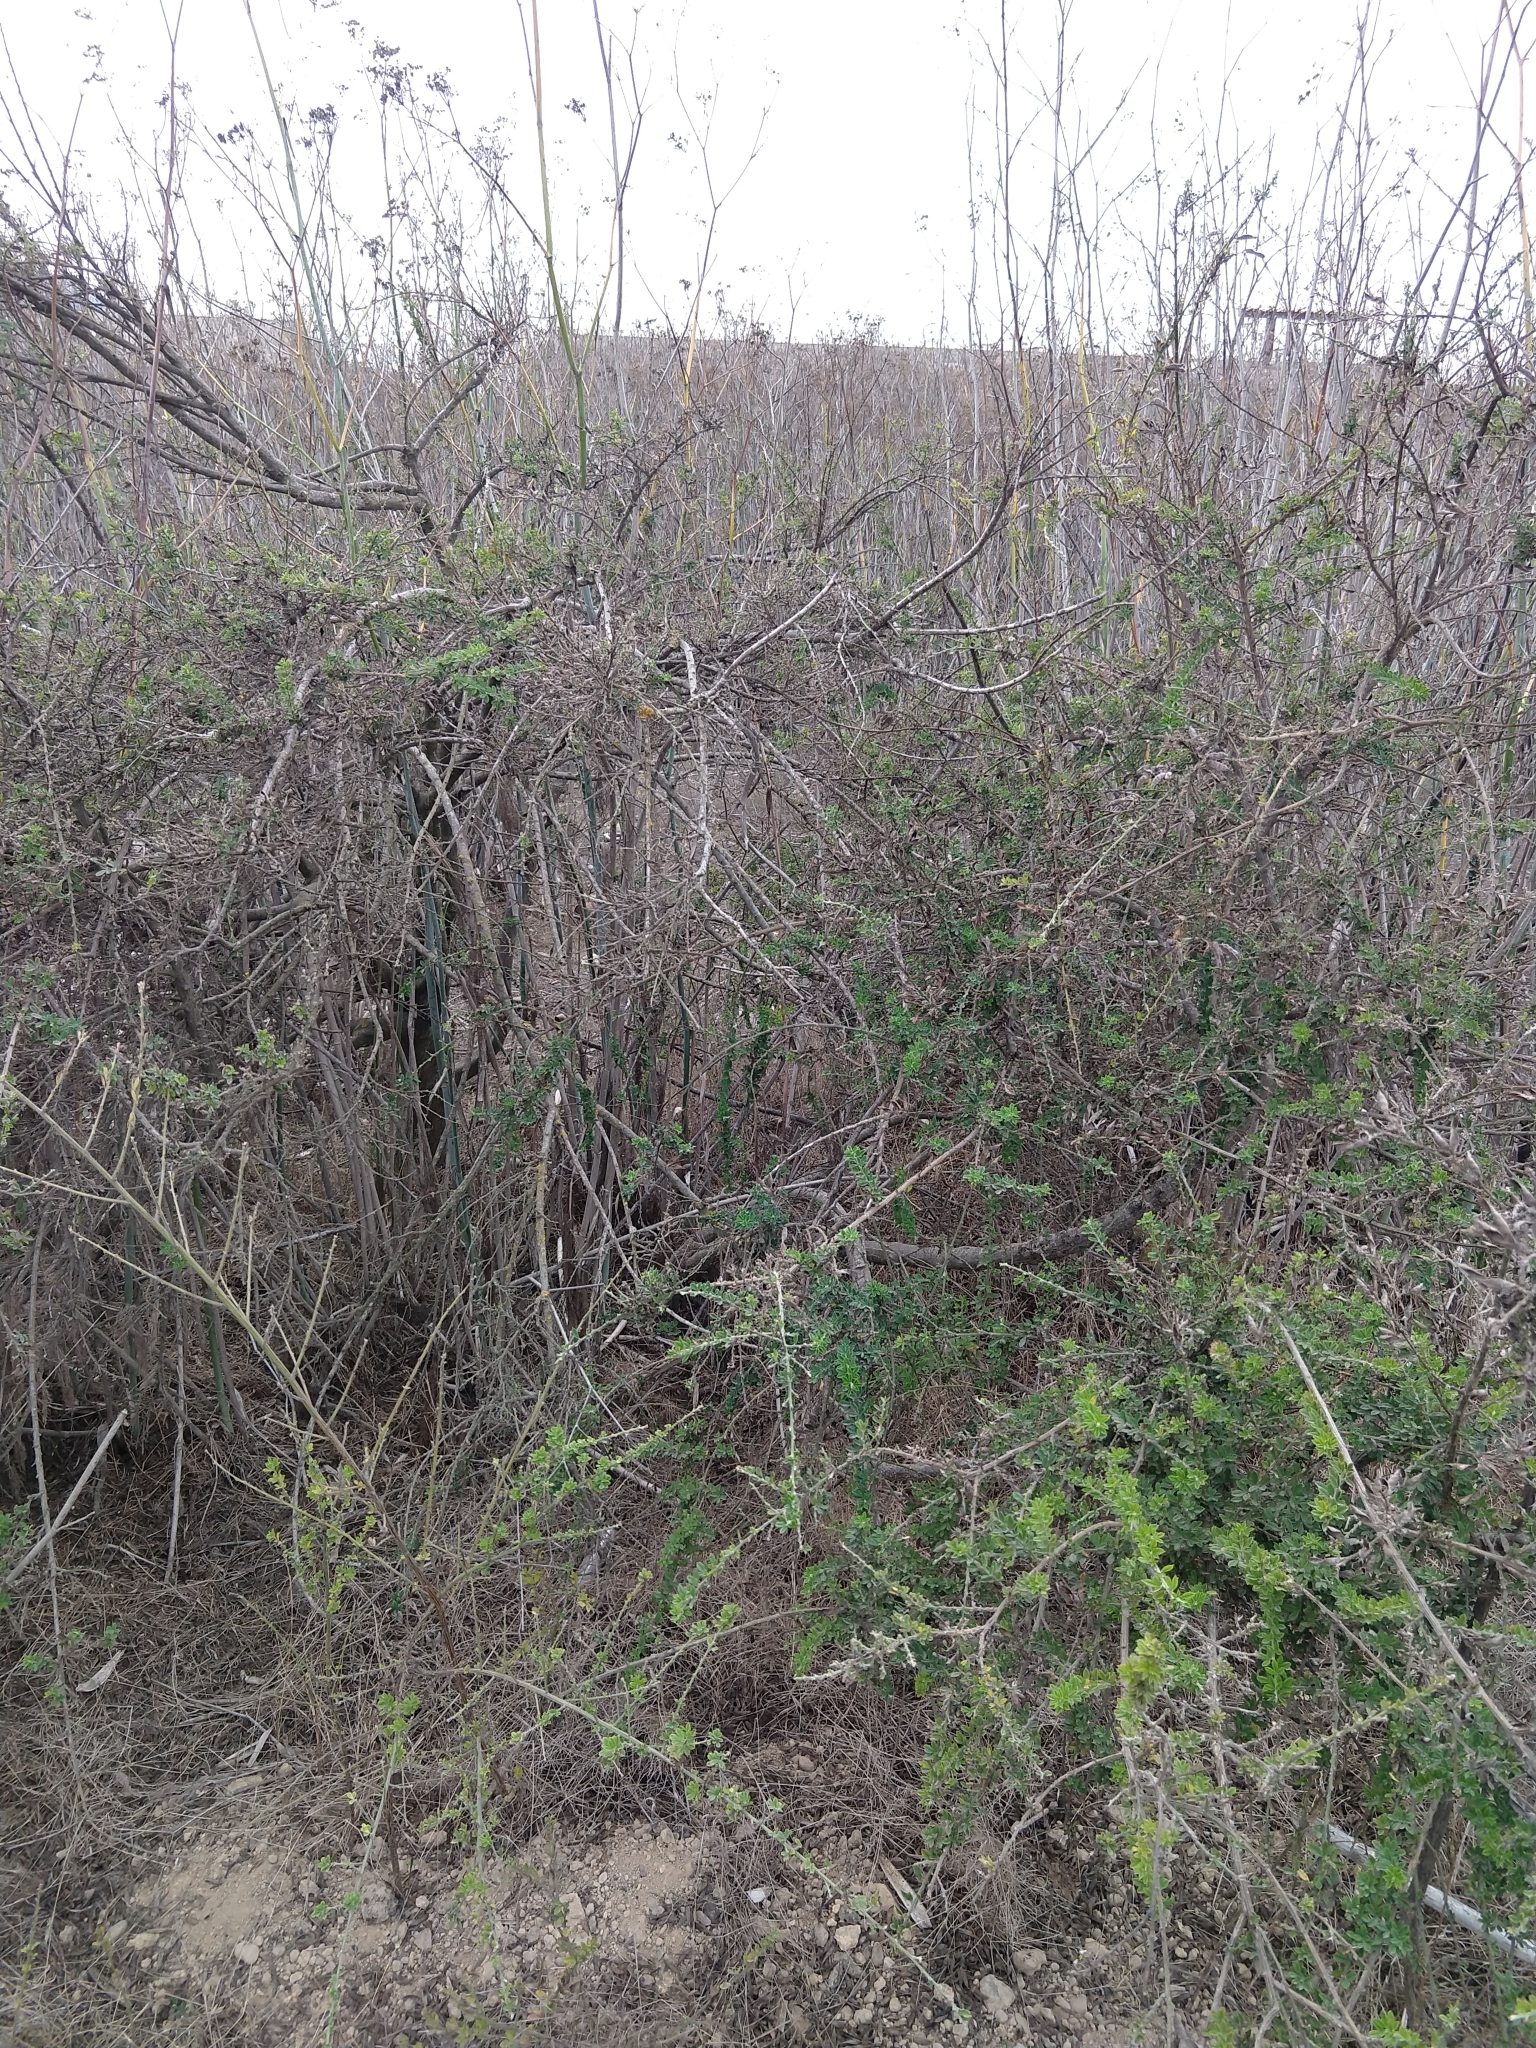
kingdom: Plantae
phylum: Tracheophyta
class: Magnoliopsida
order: Fabales
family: Fabaceae
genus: Genista
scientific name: Genista monspessulana
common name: Montpellier broom
